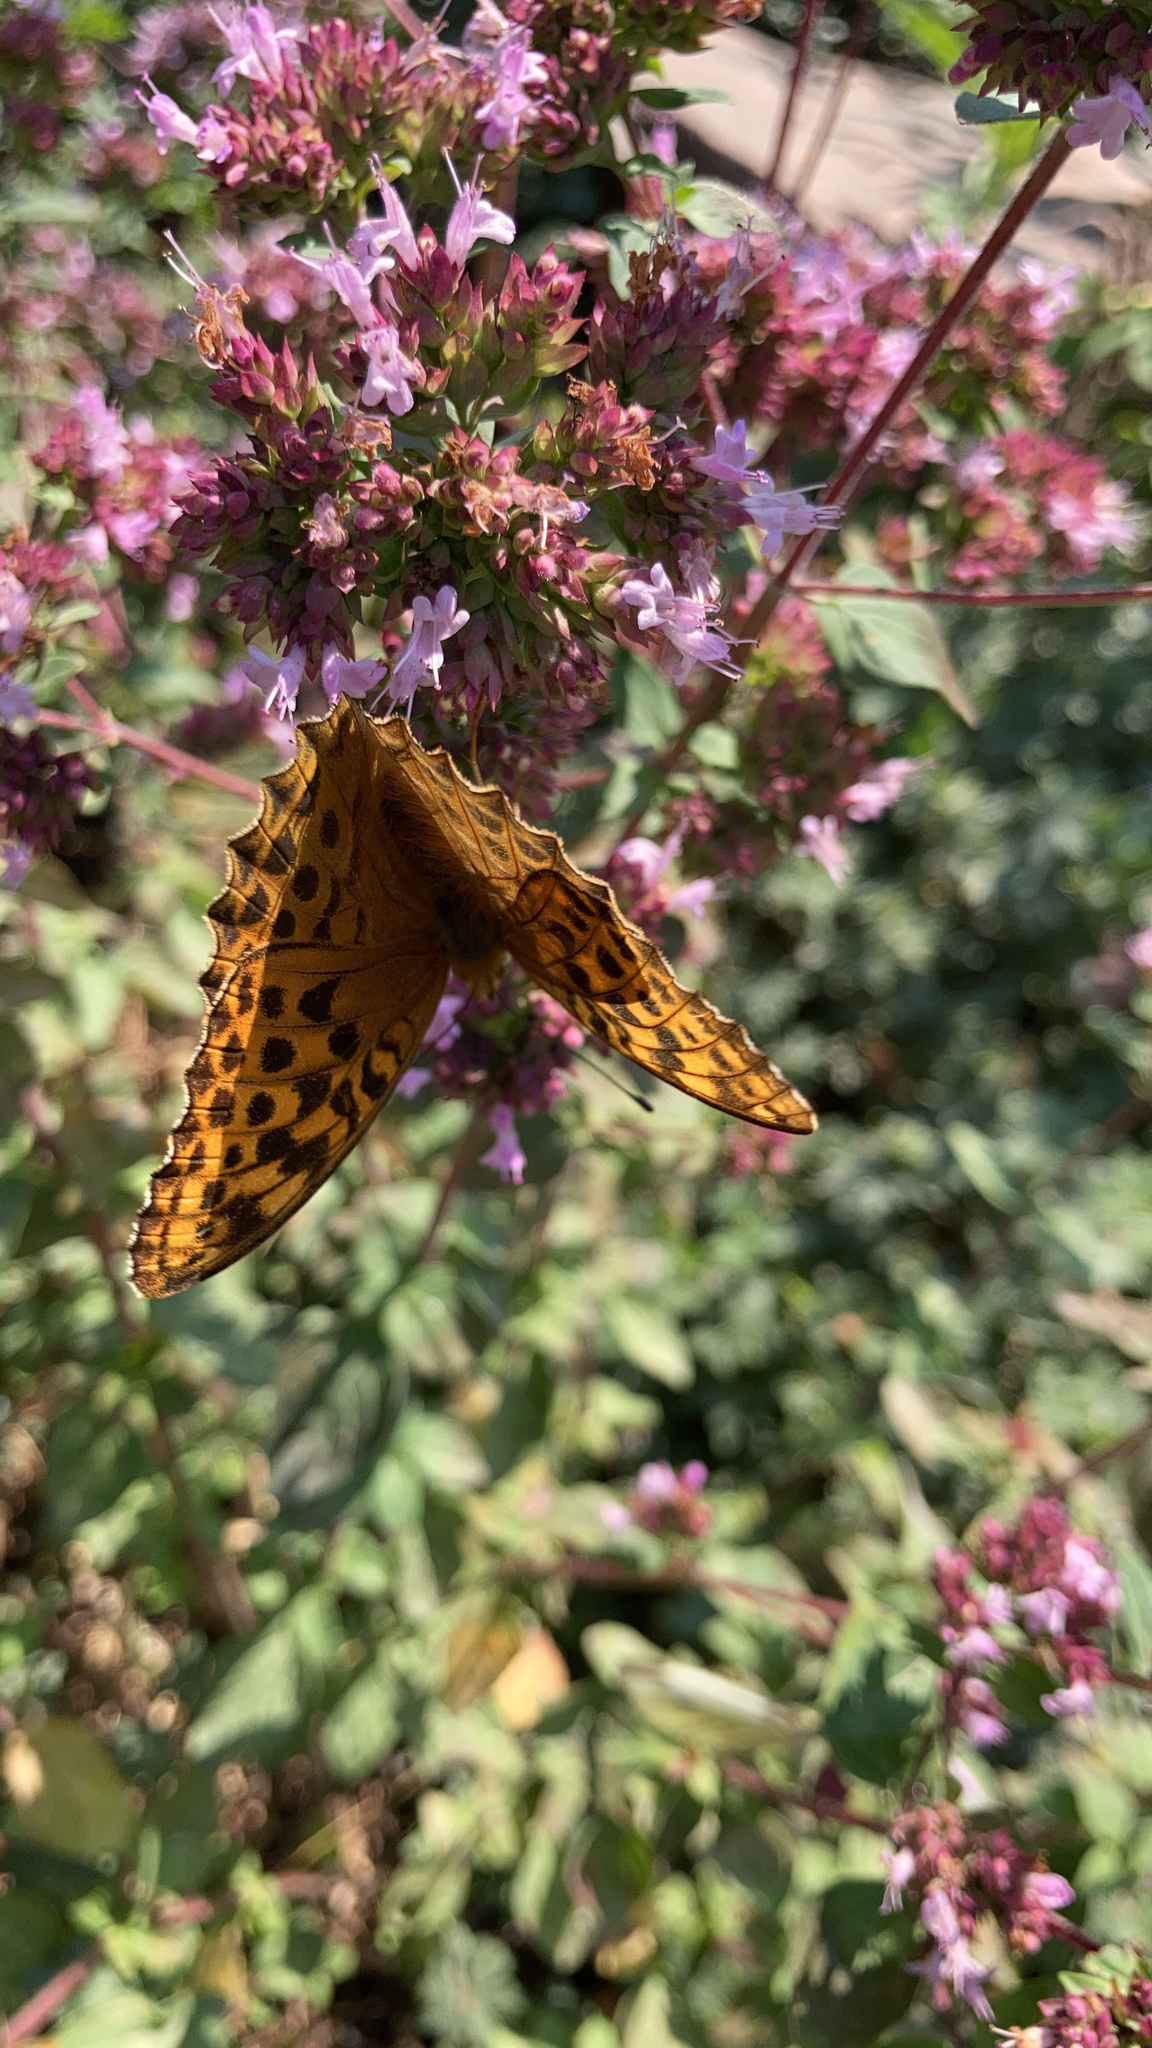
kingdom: Animalia
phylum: Arthropoda
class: Insecta
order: Lepidoptera
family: Nymphalidae
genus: Argynnis
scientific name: Argynnis paphia
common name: Silver-washed fritillary
